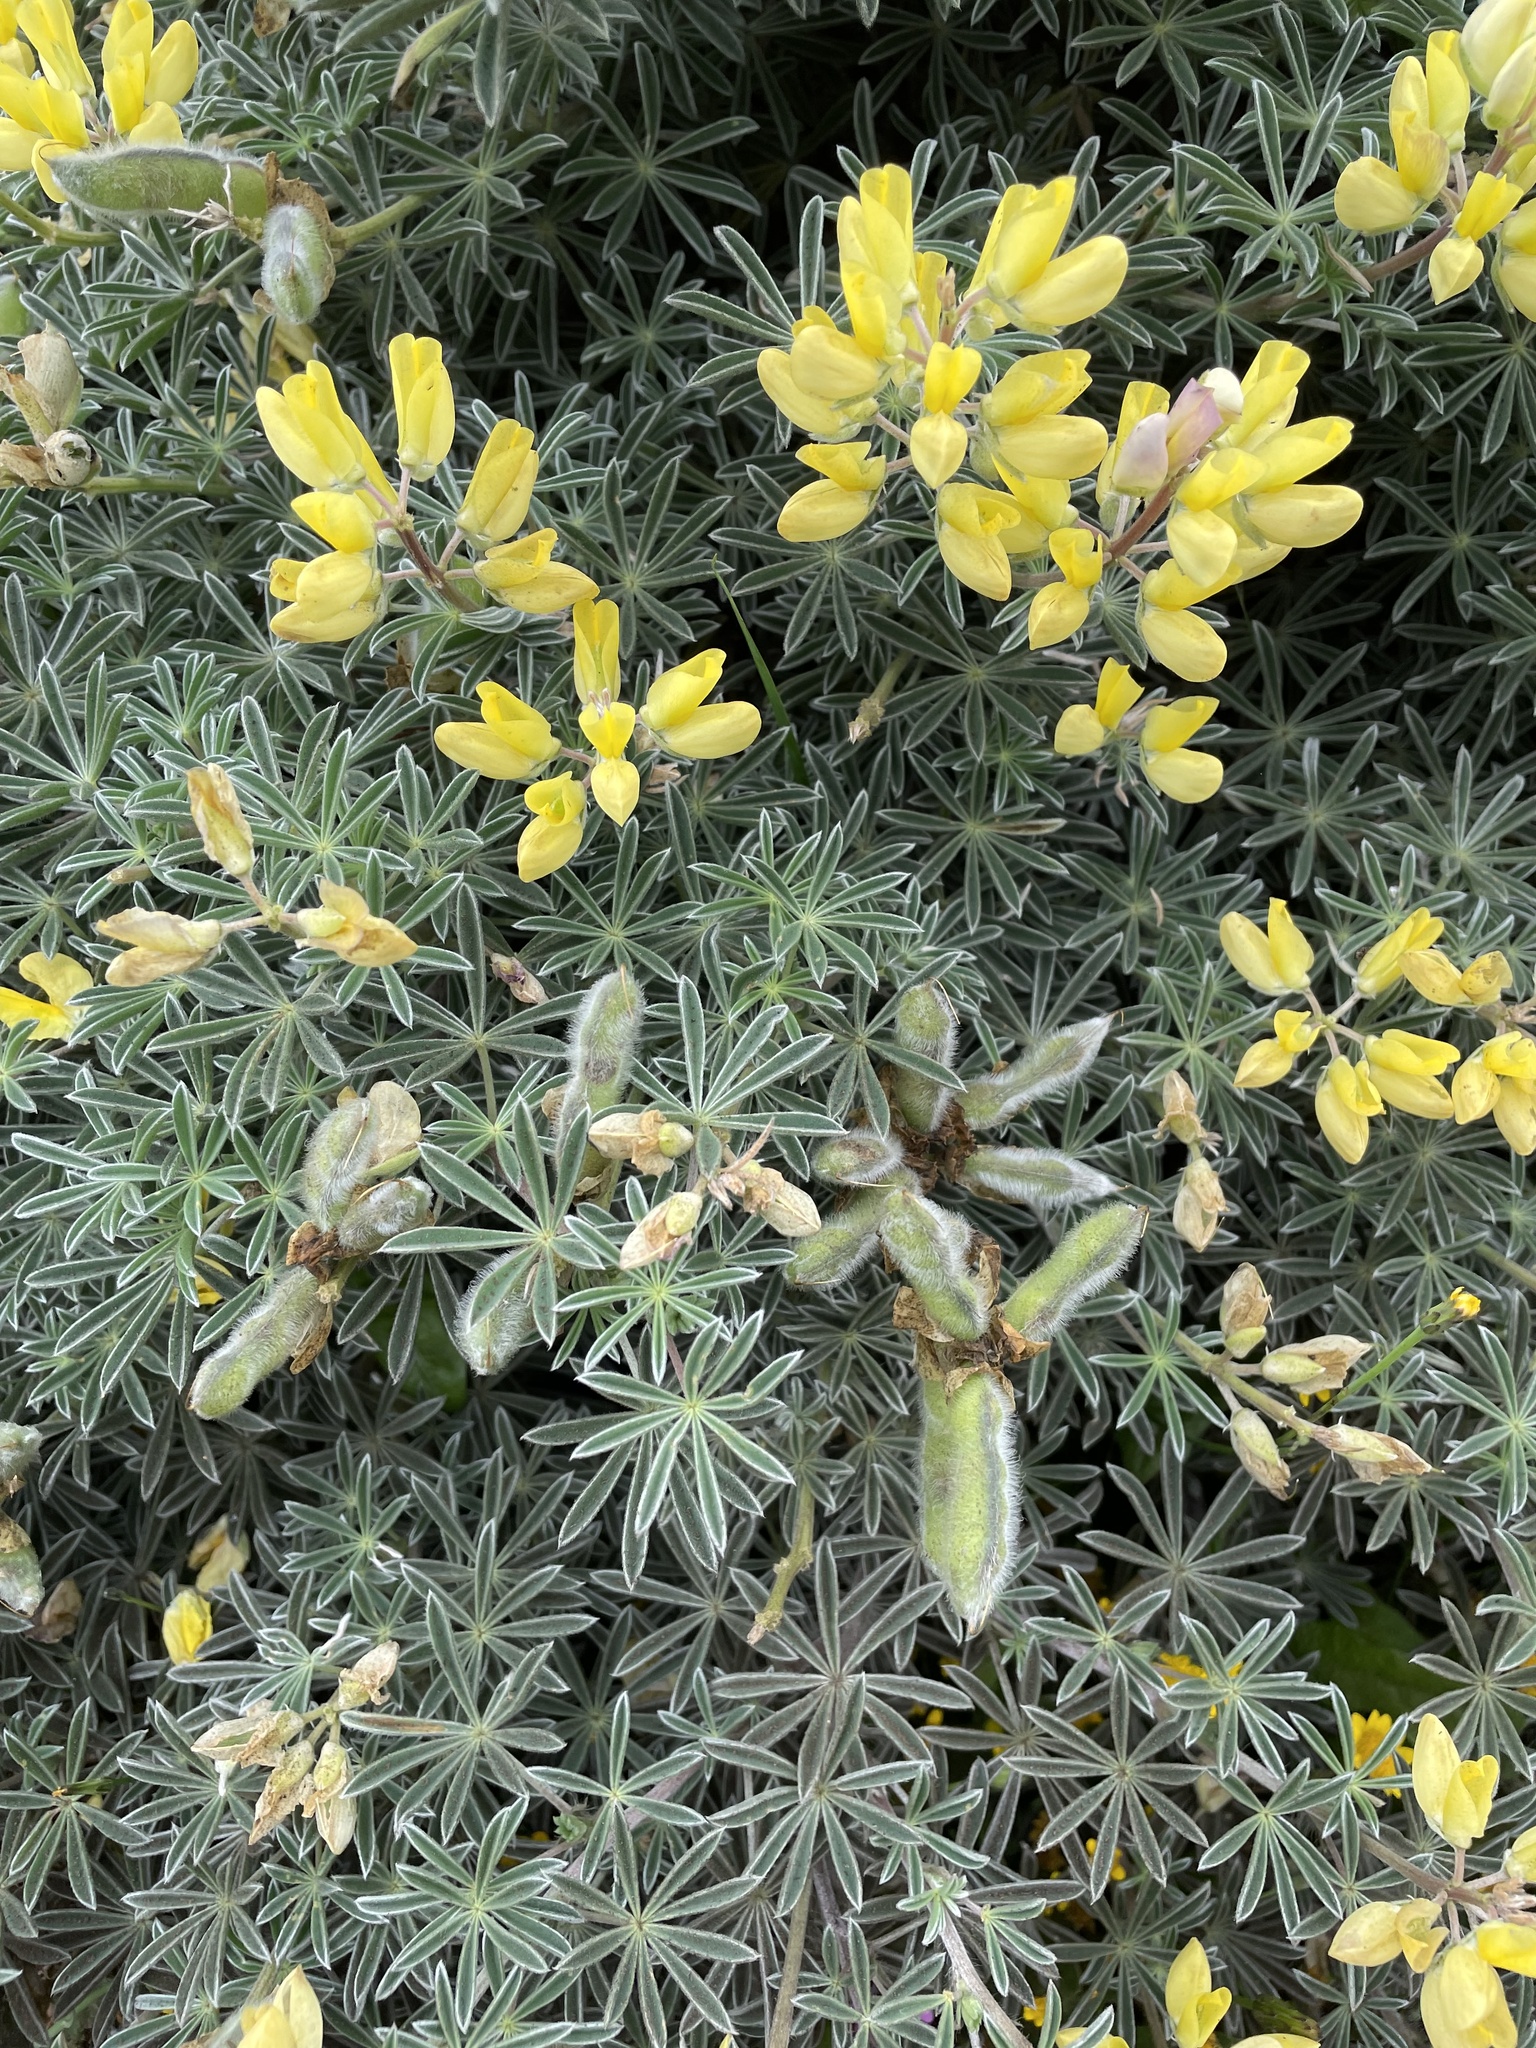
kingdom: Plantae
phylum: Tracheophyta
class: Magnoliopsida
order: Fabales
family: Fabaceae
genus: Lupinus
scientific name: Lupinus arboreus
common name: Yellow bush lupine
